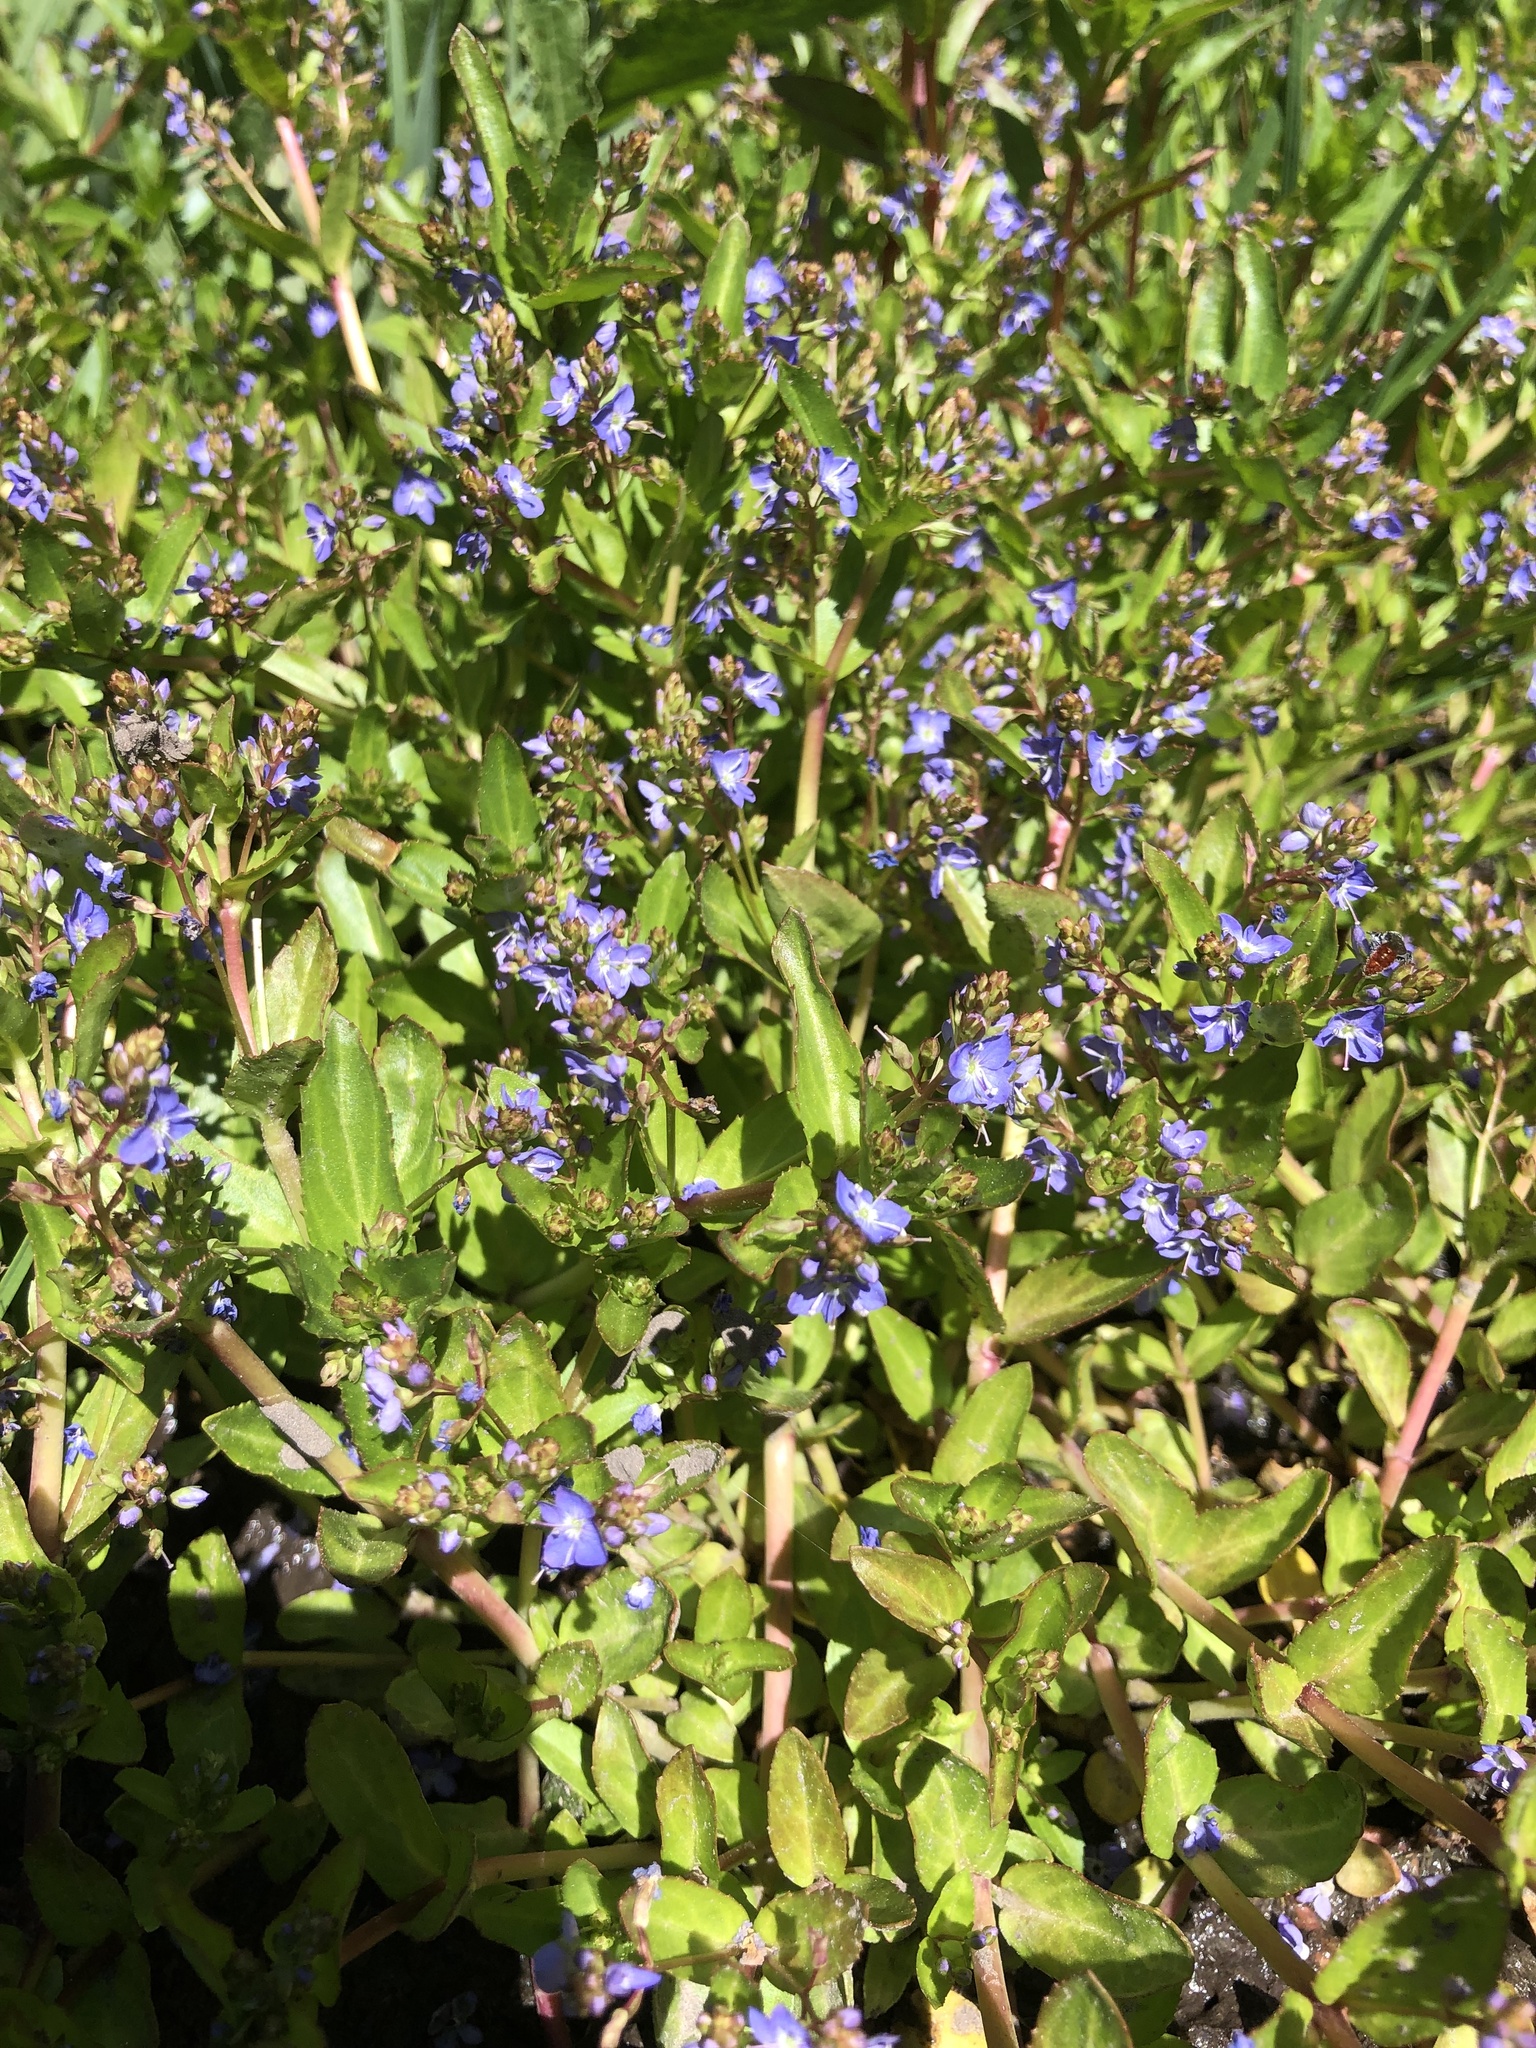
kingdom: Plantae
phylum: Tracheophyta
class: Magnoliopsida
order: Lamiales
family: Plantaginaceae
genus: Veronica
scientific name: Veronica americana
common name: American brooklime
